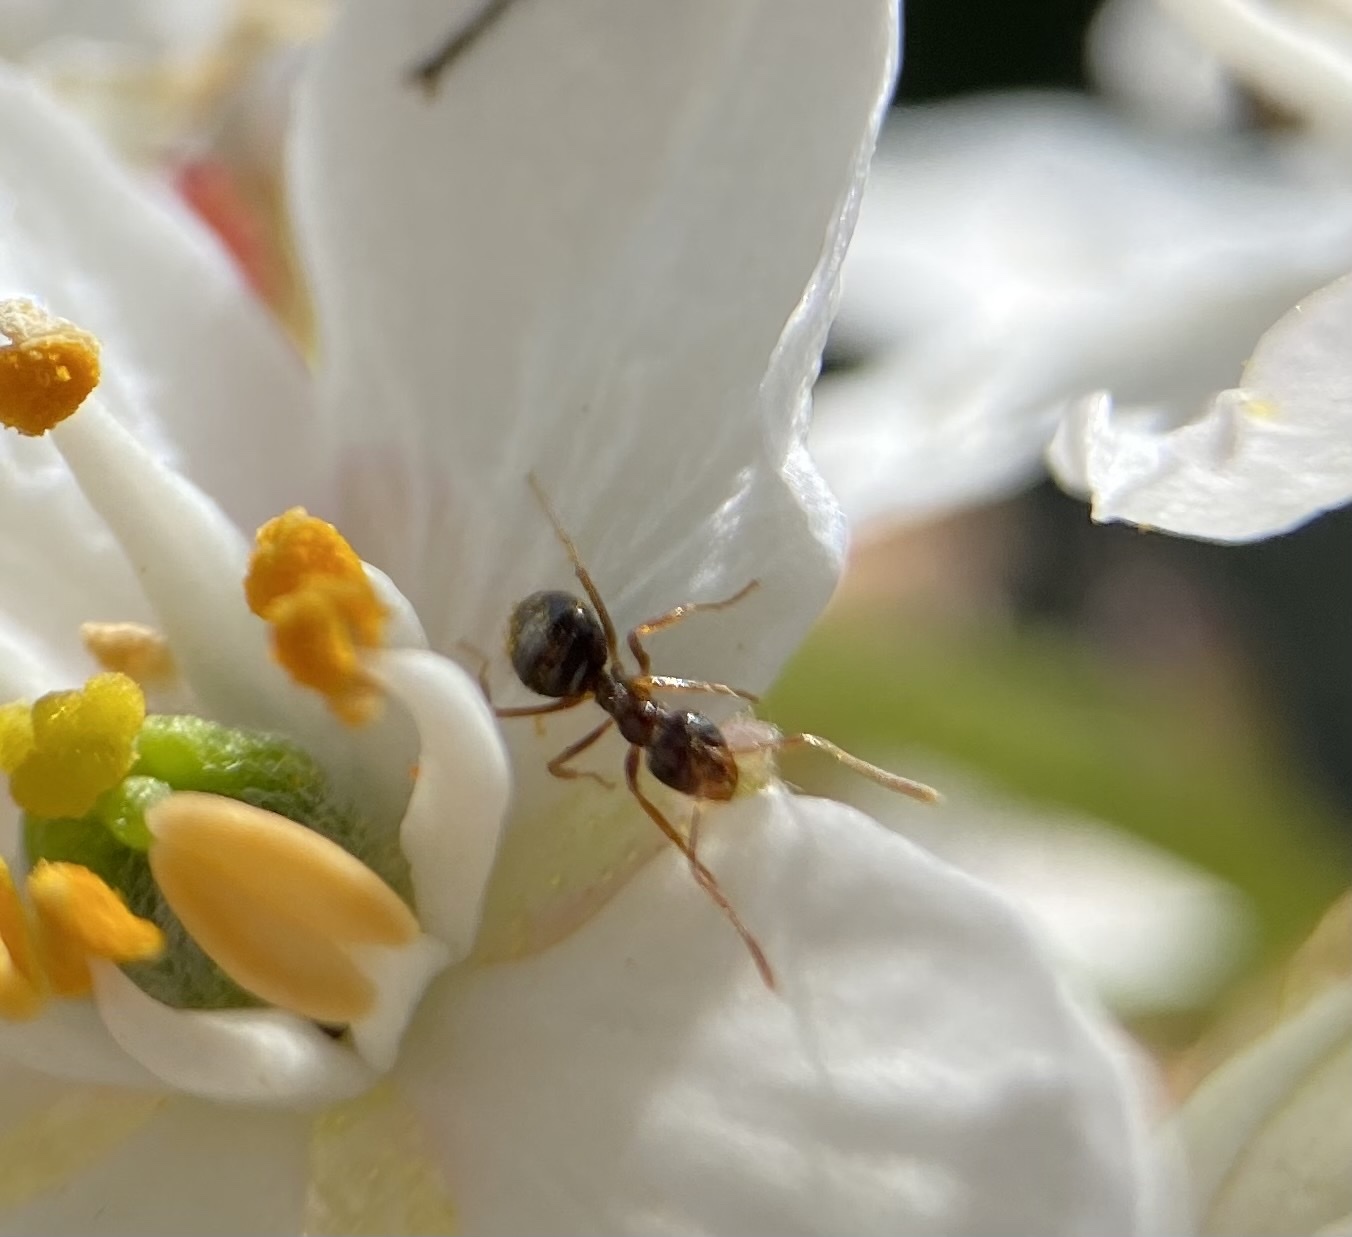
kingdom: Animalia
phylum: Arthropoda
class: Insecta
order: Hymenoptera
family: Formicidae
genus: Prenolepis
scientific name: Prenolepis imparis
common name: Small honey ant
